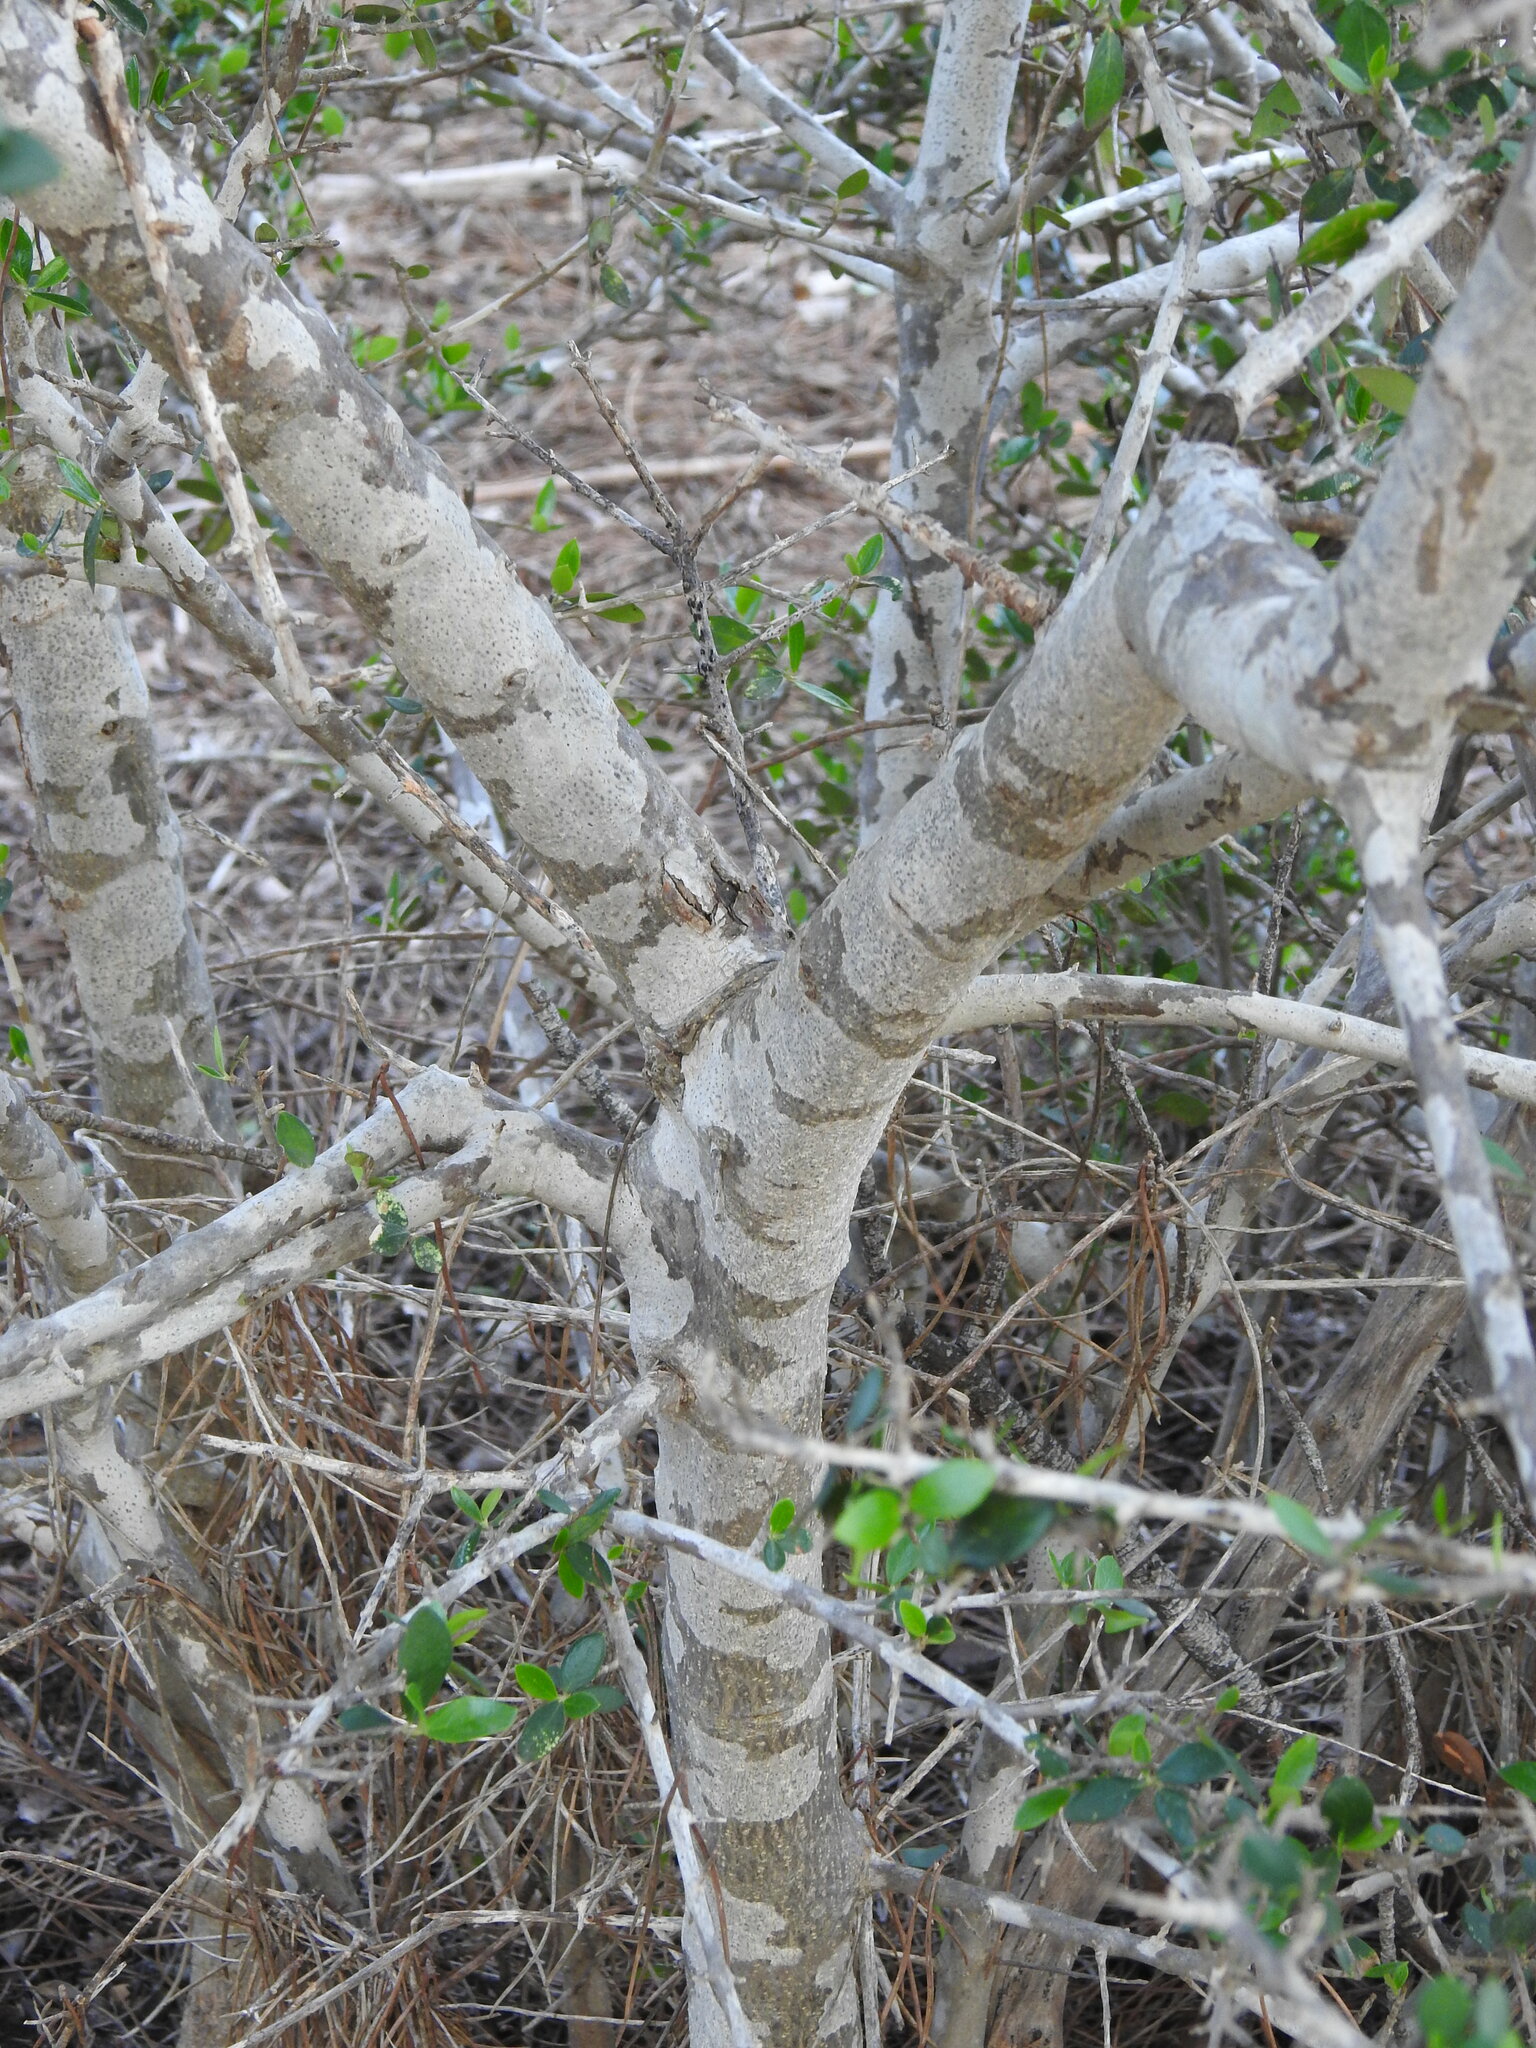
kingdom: Plantae
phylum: Tracheophyta
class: Magnoliopsida
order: Lamiales
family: Oleaceae
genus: Olea
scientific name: Olea europaea
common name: Olive
